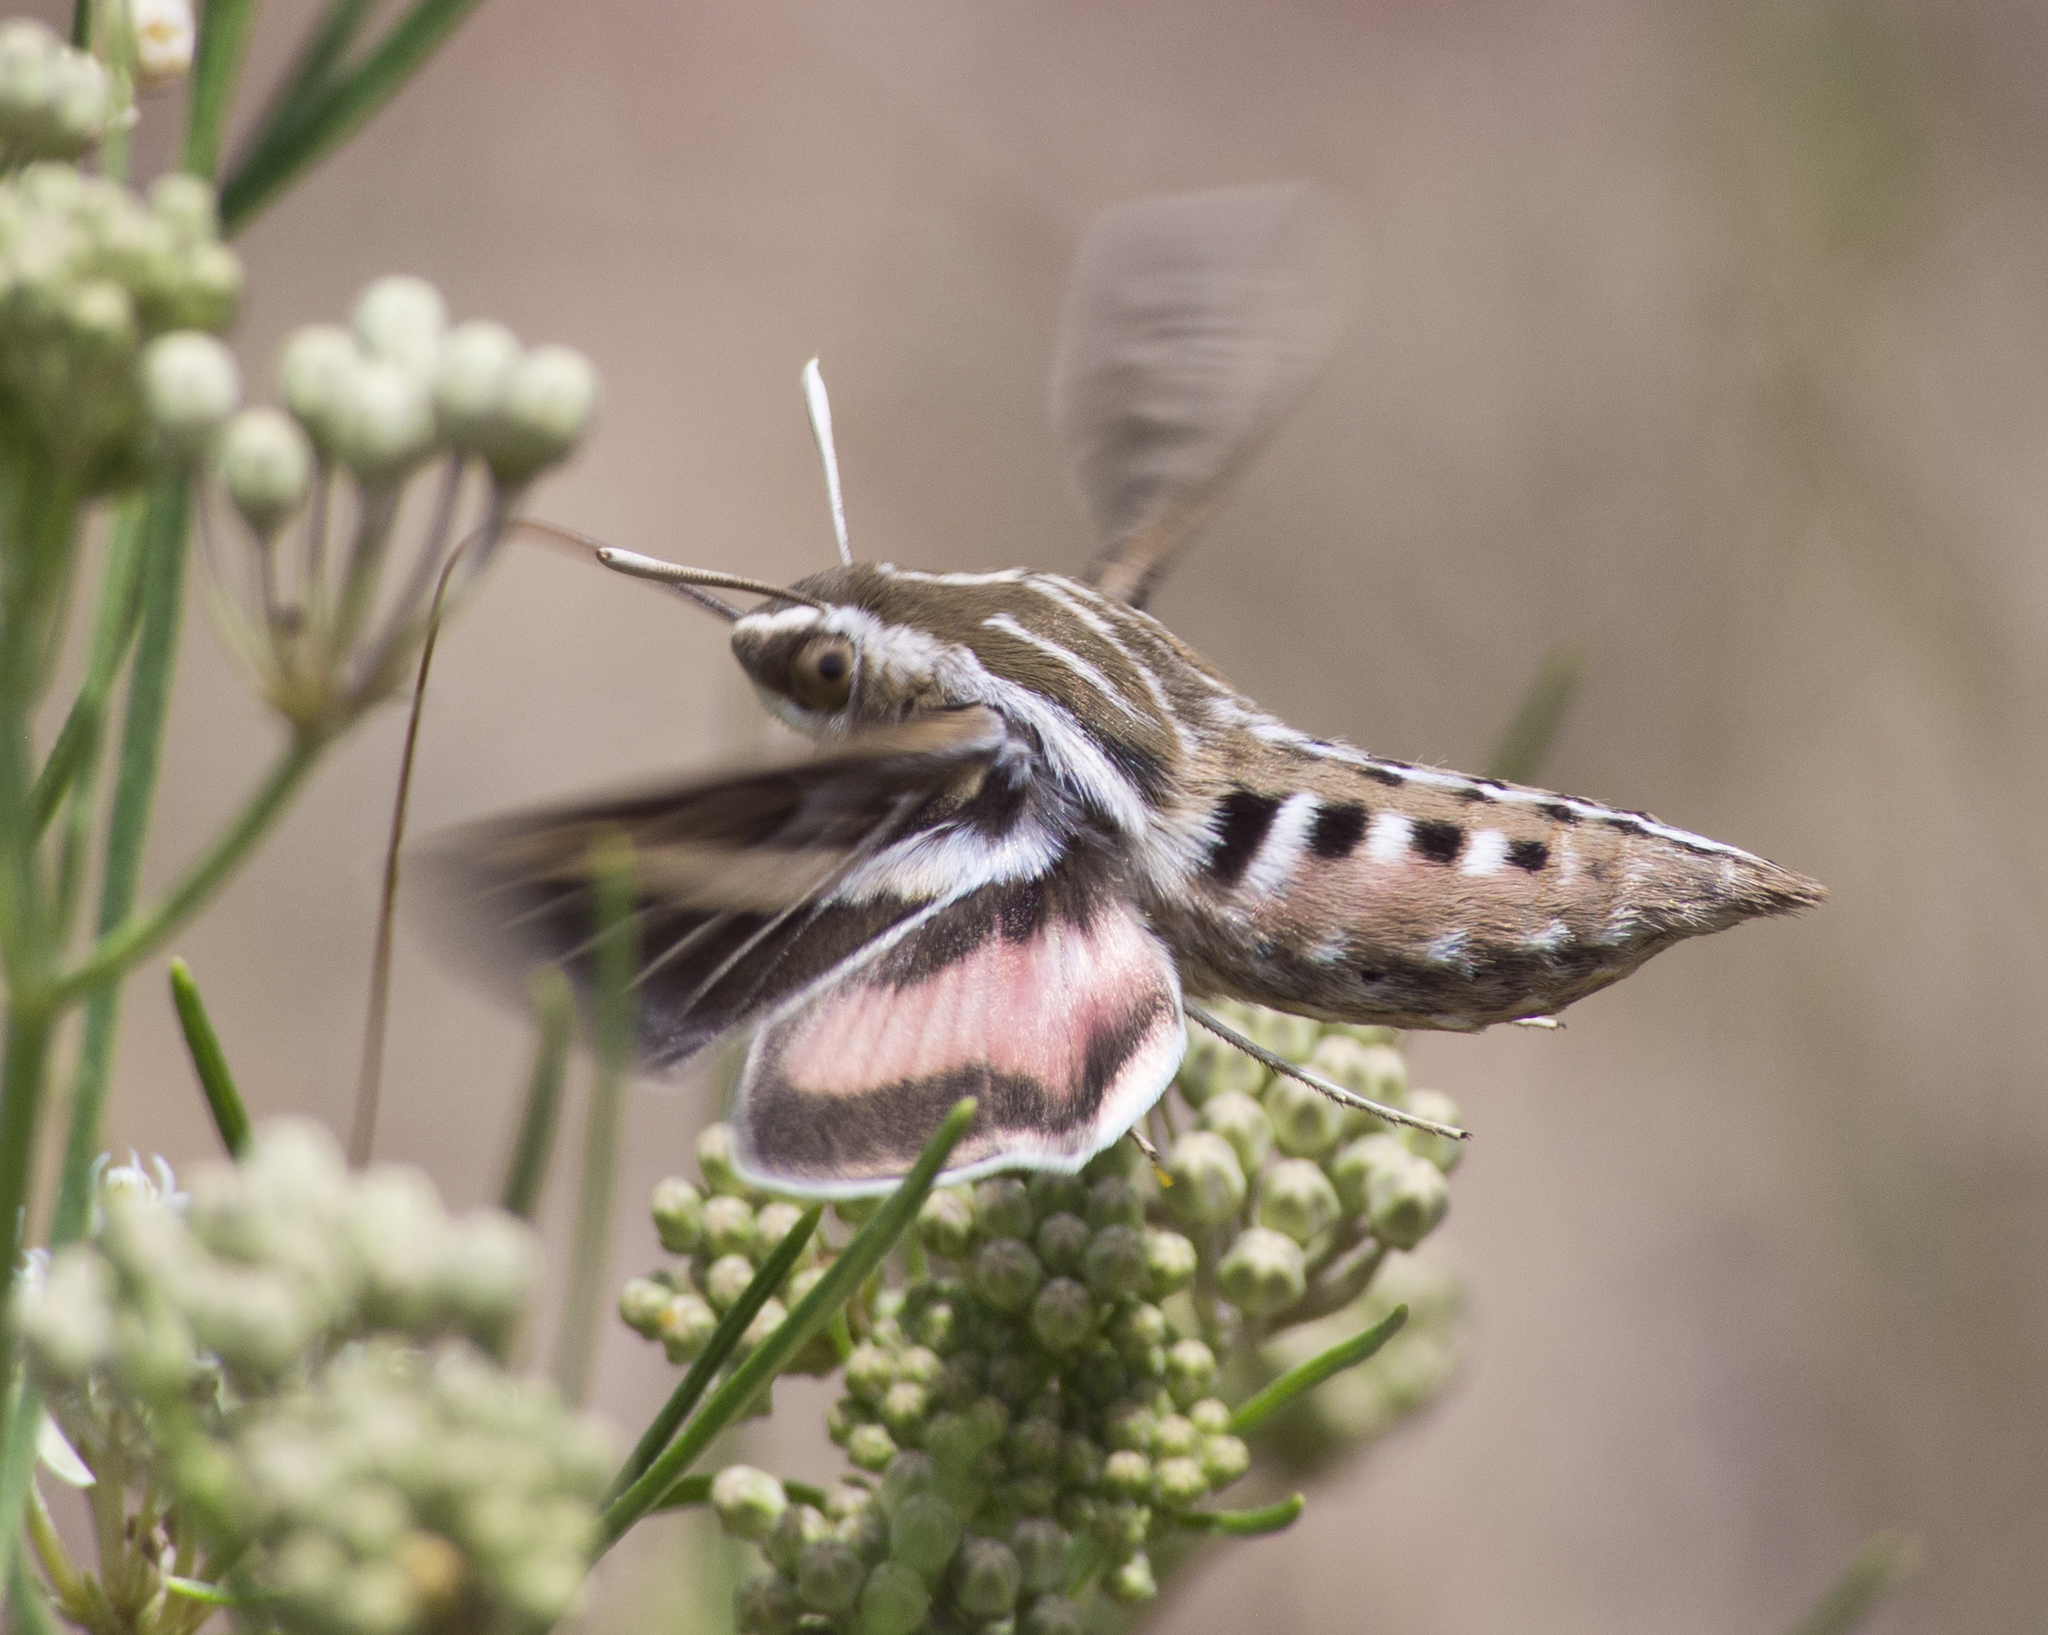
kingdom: Animalia
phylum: Arthropoda
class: Insecta
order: Lepidoptera
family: Sphingidae
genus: Hyles
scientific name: Hyles lineata
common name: White-lined sphinx
